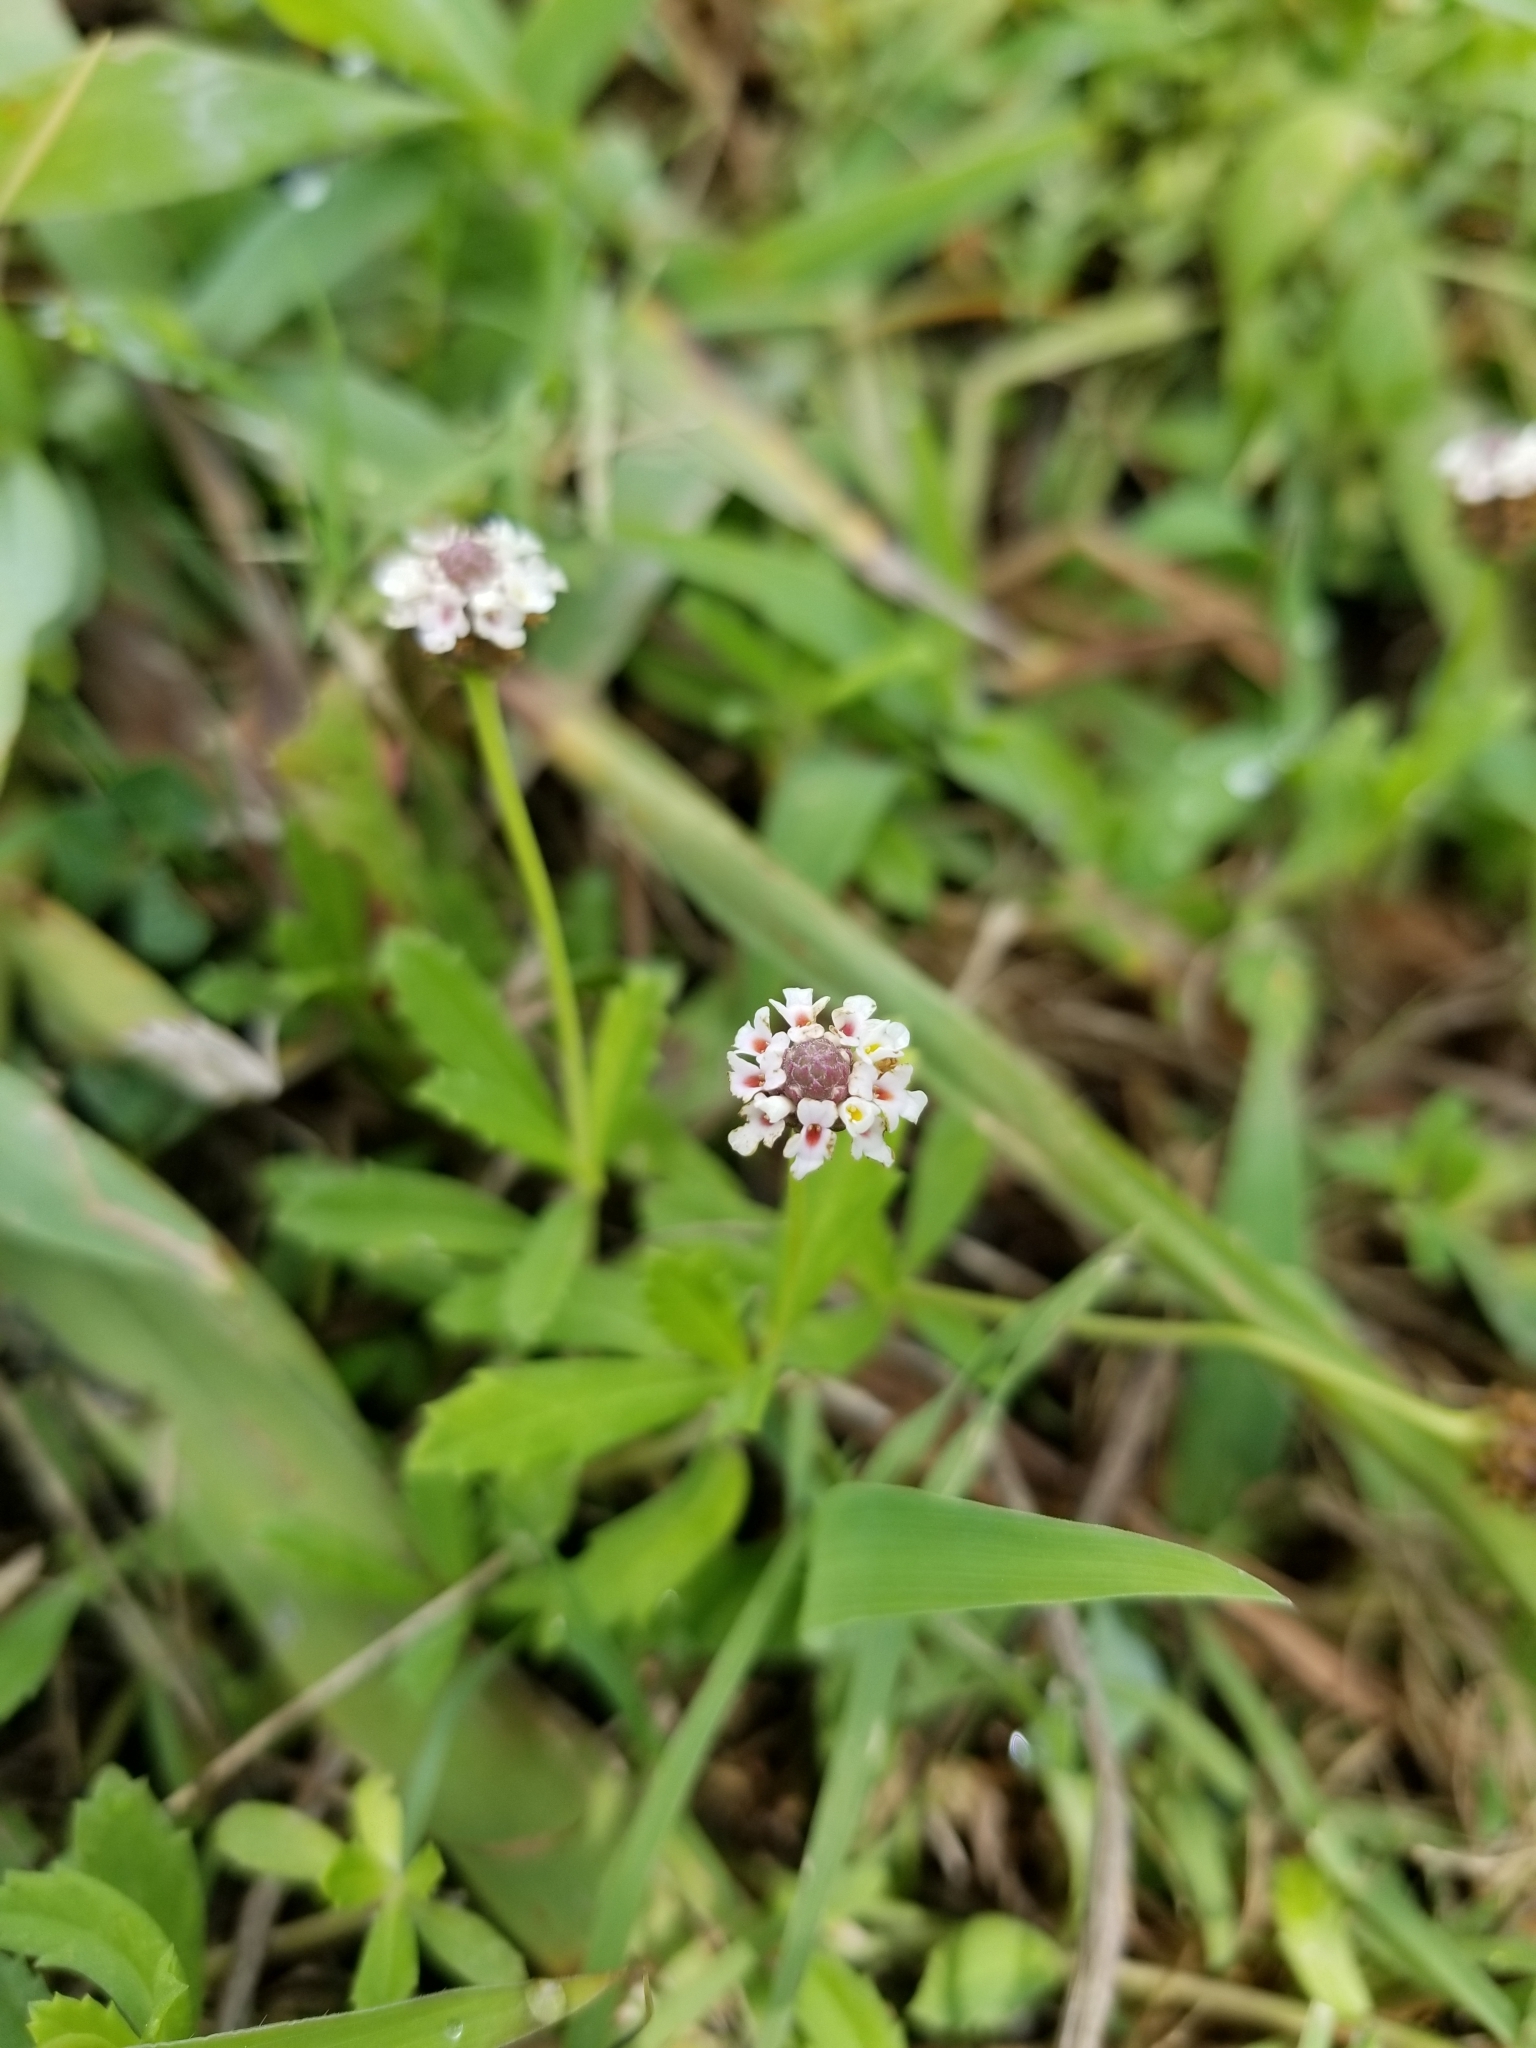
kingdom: Plantae
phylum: Tracheophyta
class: Magnoliopsida
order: Lamiales
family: Verbenaceae
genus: Phyla
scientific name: Phyla nodiflora
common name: Frogfruit
